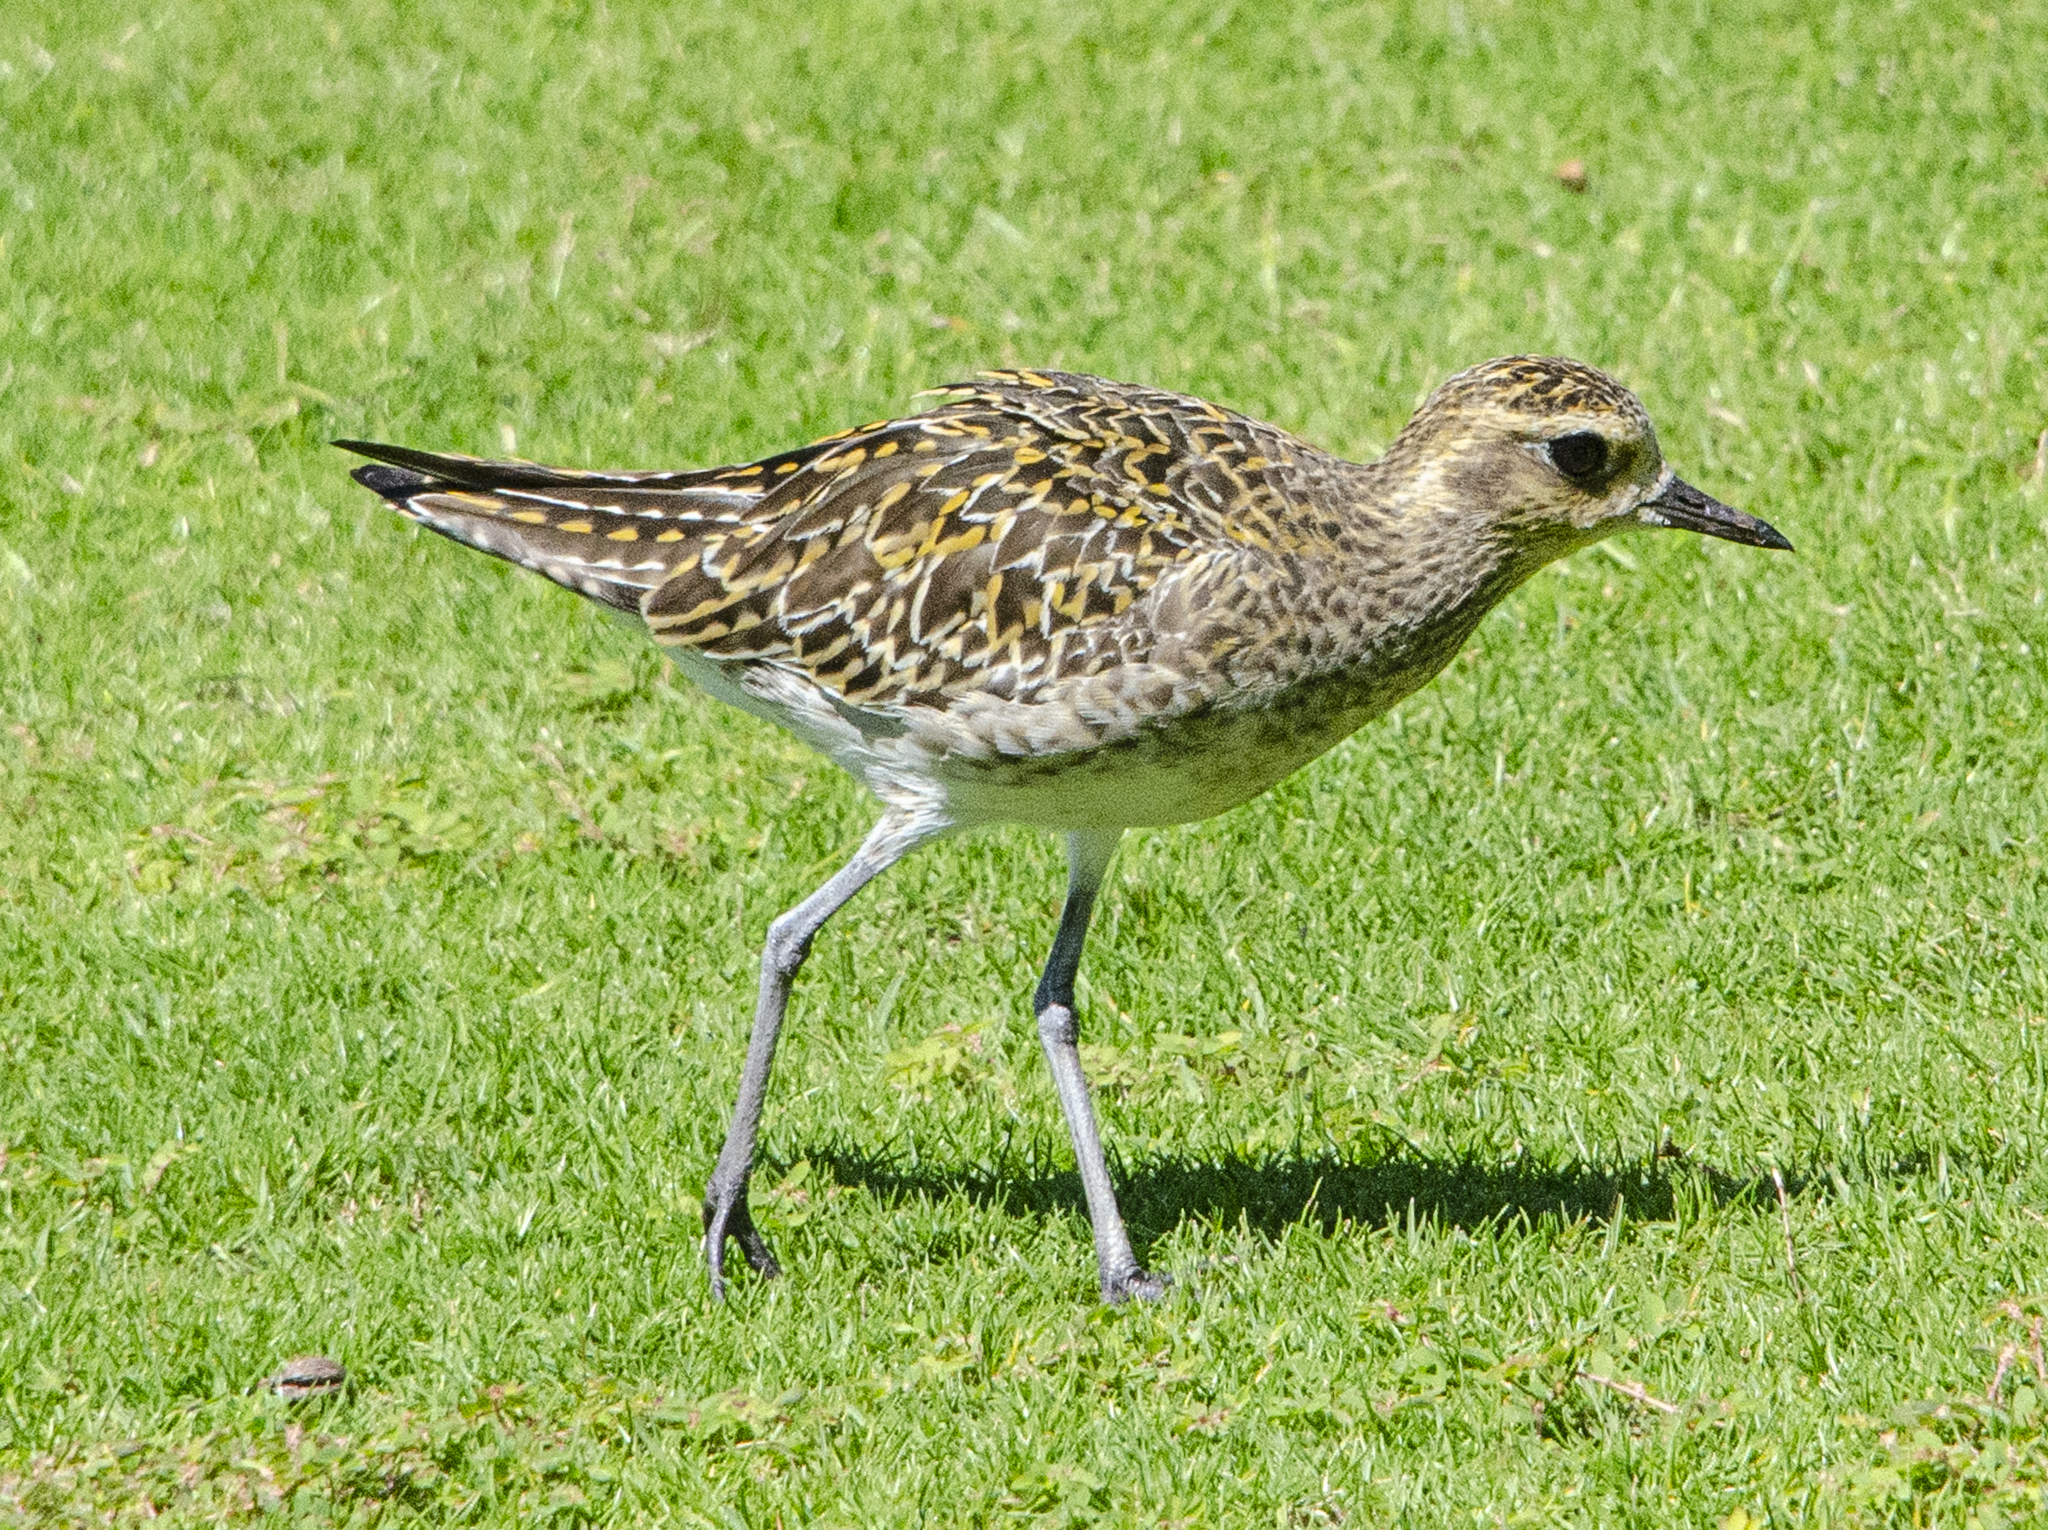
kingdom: Animalia
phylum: Chordata
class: Aves
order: Charadriiformes
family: Charadriidae
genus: Pluvialis
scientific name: Pluvialis fulva
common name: Pacific golden plover
